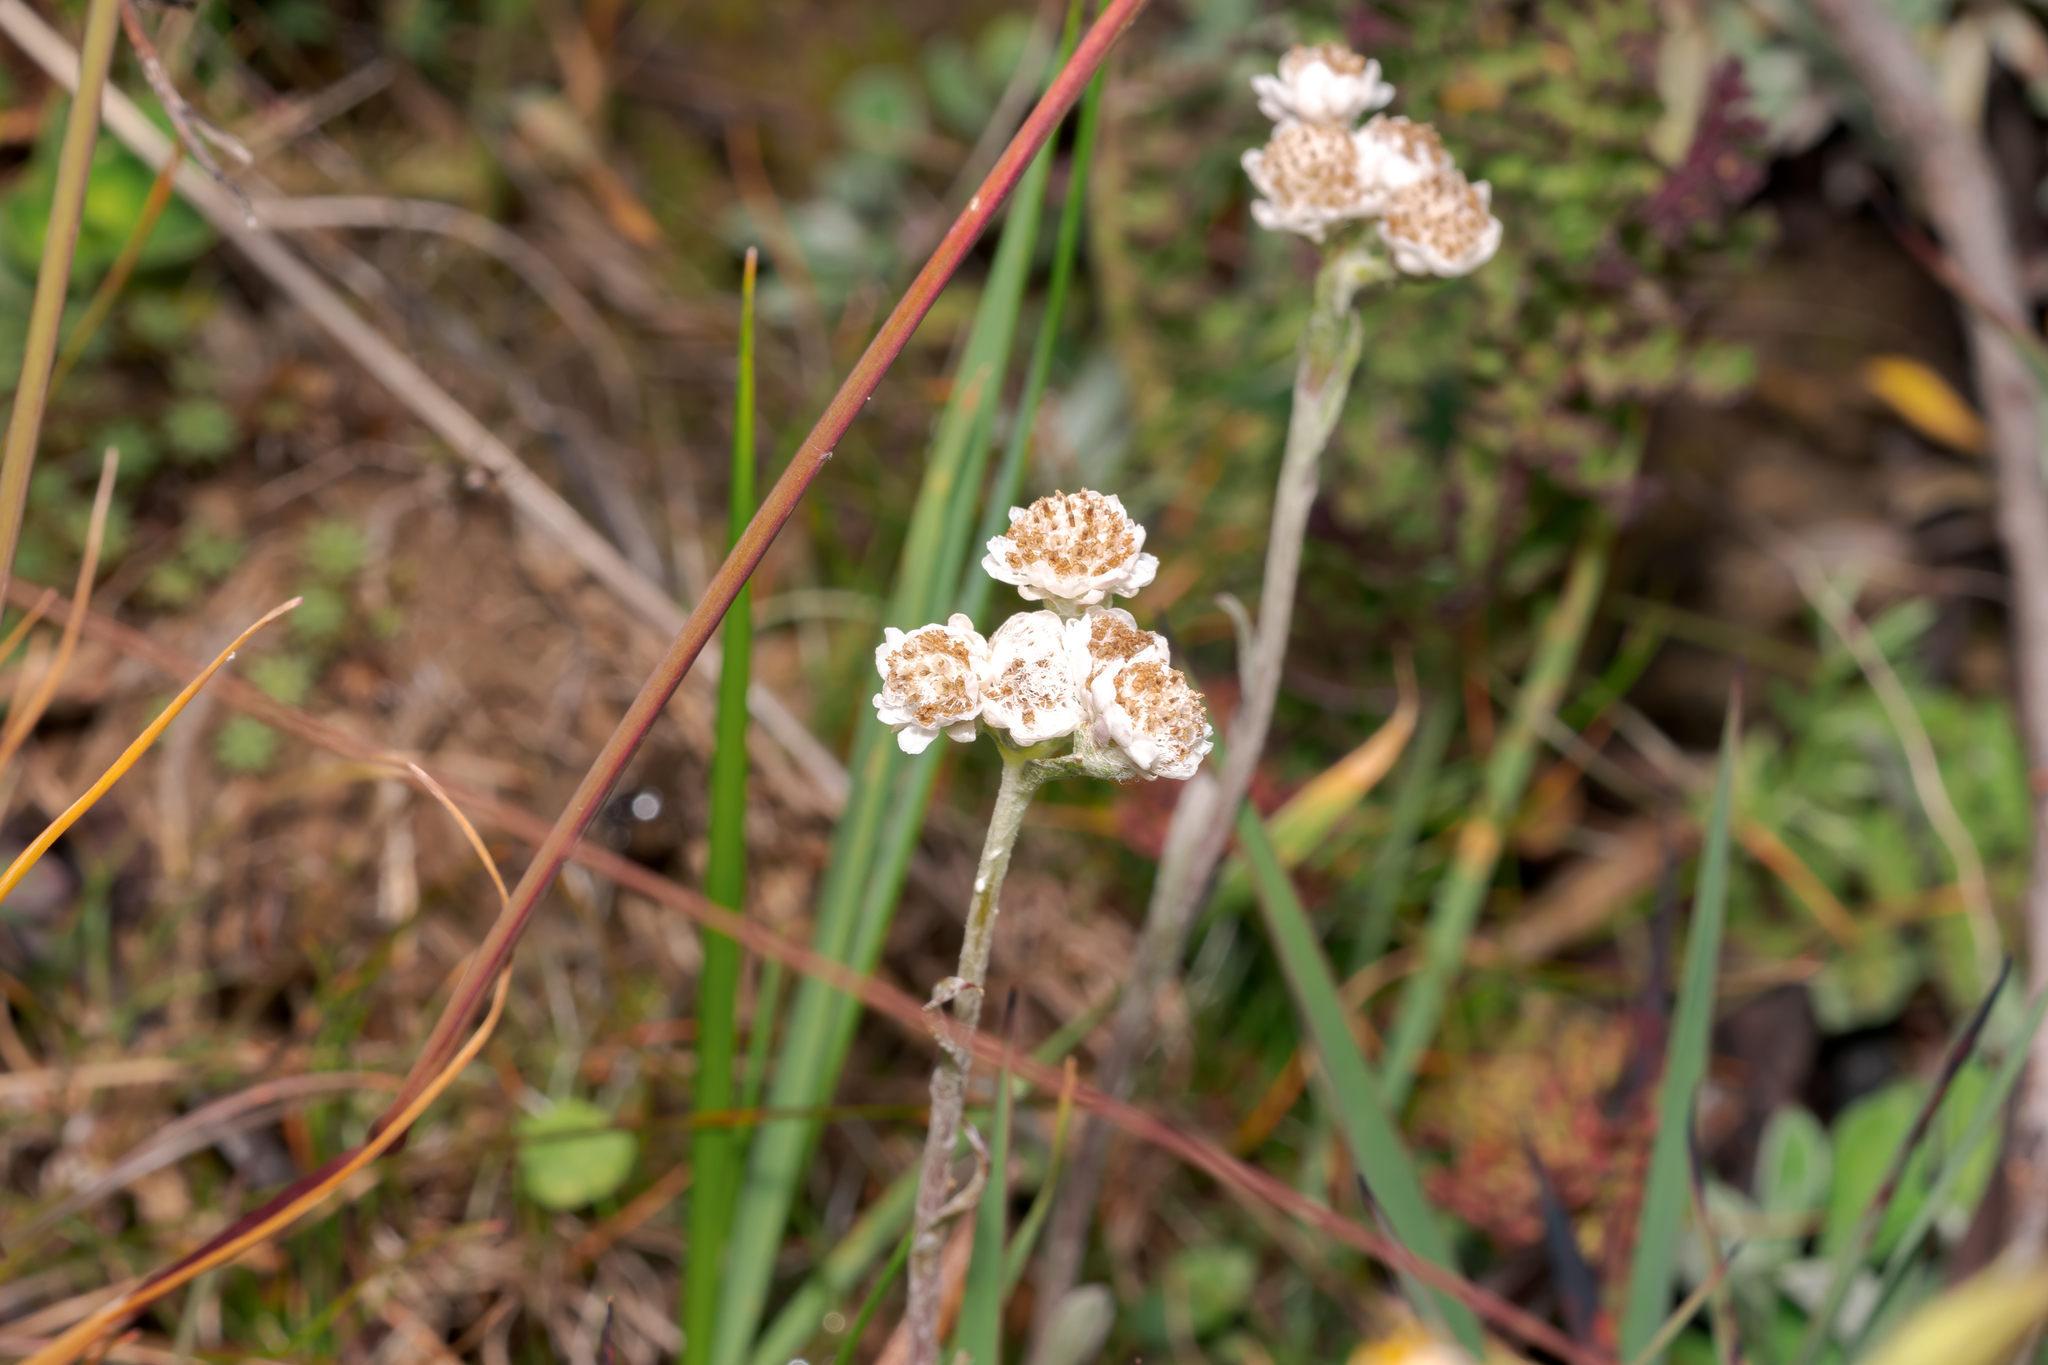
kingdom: Plantae
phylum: Tracheophyta
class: Magnoliopsida
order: Asterales
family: Asteraceae
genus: Antennaria
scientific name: Antennaria dioica
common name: Mountain everlasting
